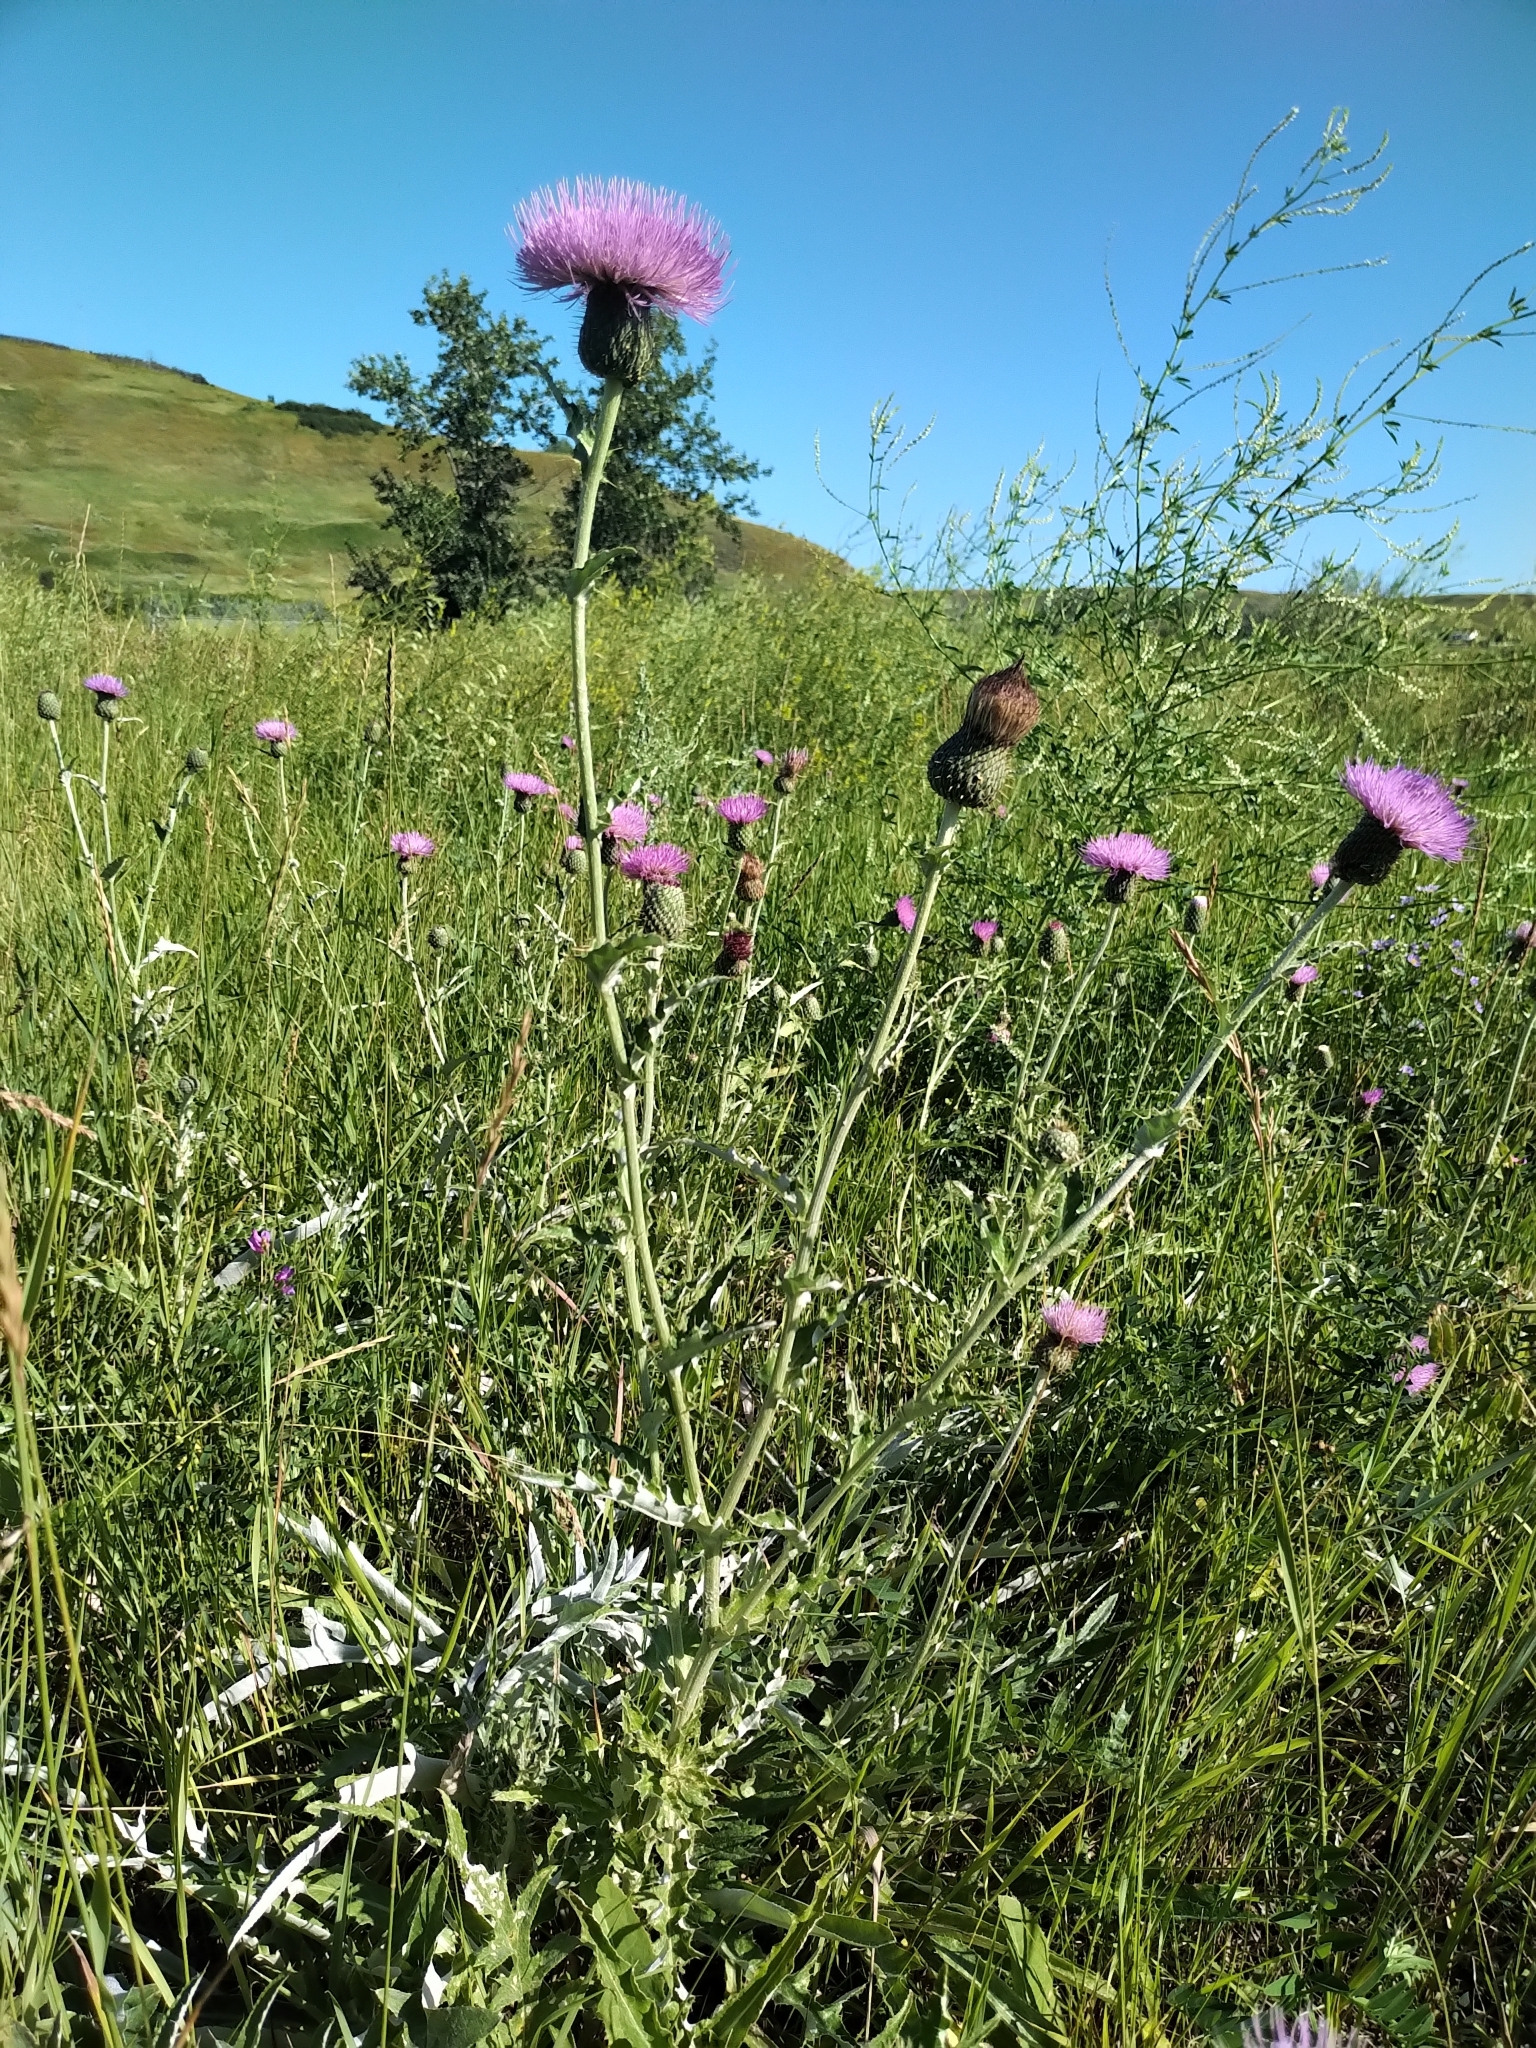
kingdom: Plantae
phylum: Tracheophyta
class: Magnoliopsida
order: Asterales
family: Asteraceae
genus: Cirsium
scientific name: Cirsium undulatum
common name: Pasture thistle
